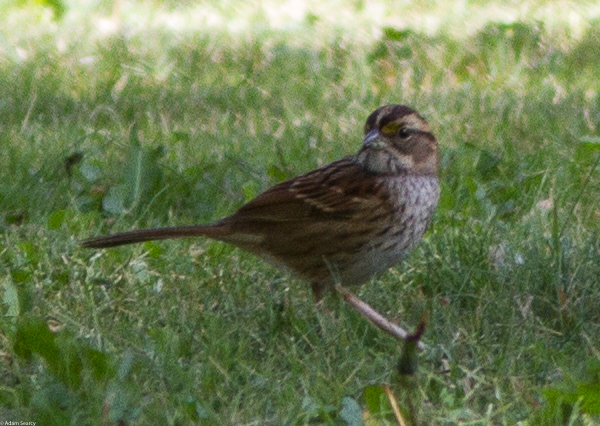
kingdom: Animalia
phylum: Chordata
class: Aves
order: Passeriformes
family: Passerellidae
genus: Zonotrichia
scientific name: Zonotrichia albicollis
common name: White-throated sparrow
